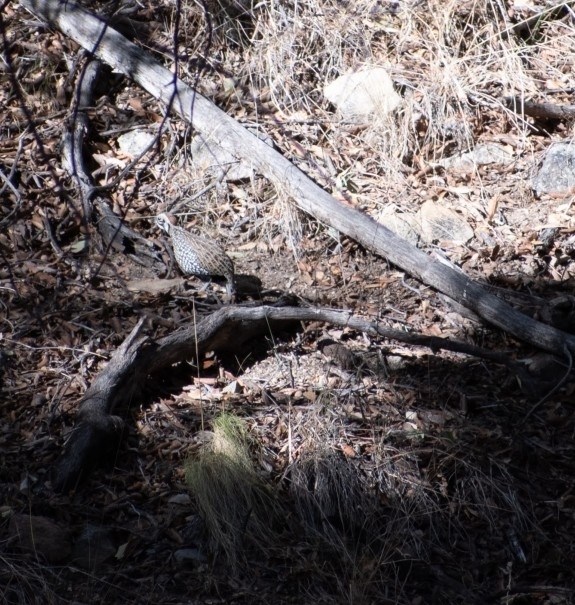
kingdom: Animalia
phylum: Chordata
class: Aves
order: Galliformes
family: Odontophoridae
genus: Cyrtonyx
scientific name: Cyrtonyx montezumae
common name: Montezuma quail
